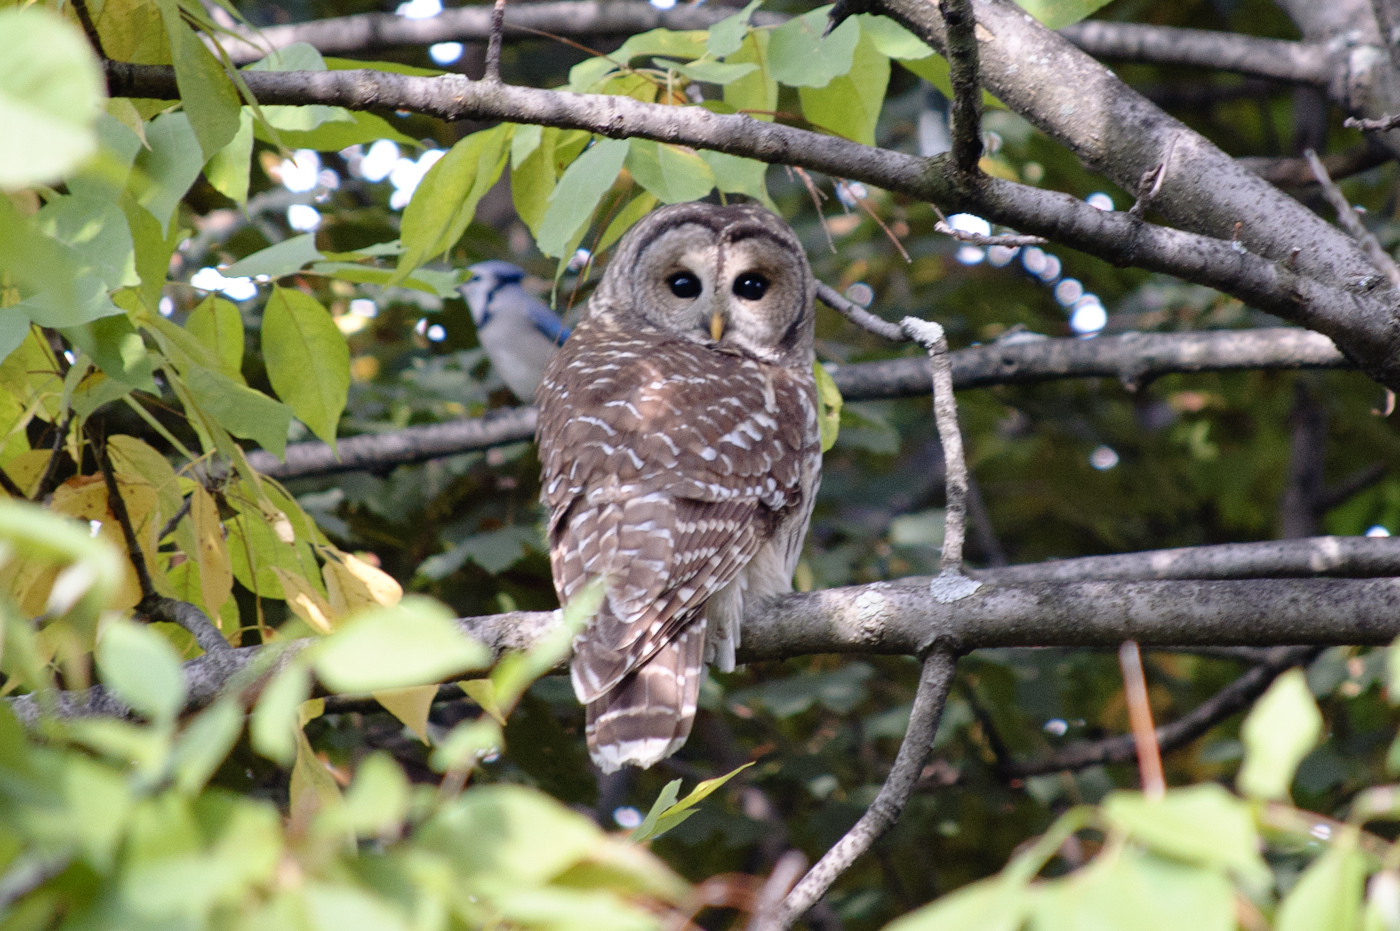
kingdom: Animalia
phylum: Chordata
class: Aves
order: Strigiformes
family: Strigidae
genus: Strix
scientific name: Strix varia
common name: Barred owl
